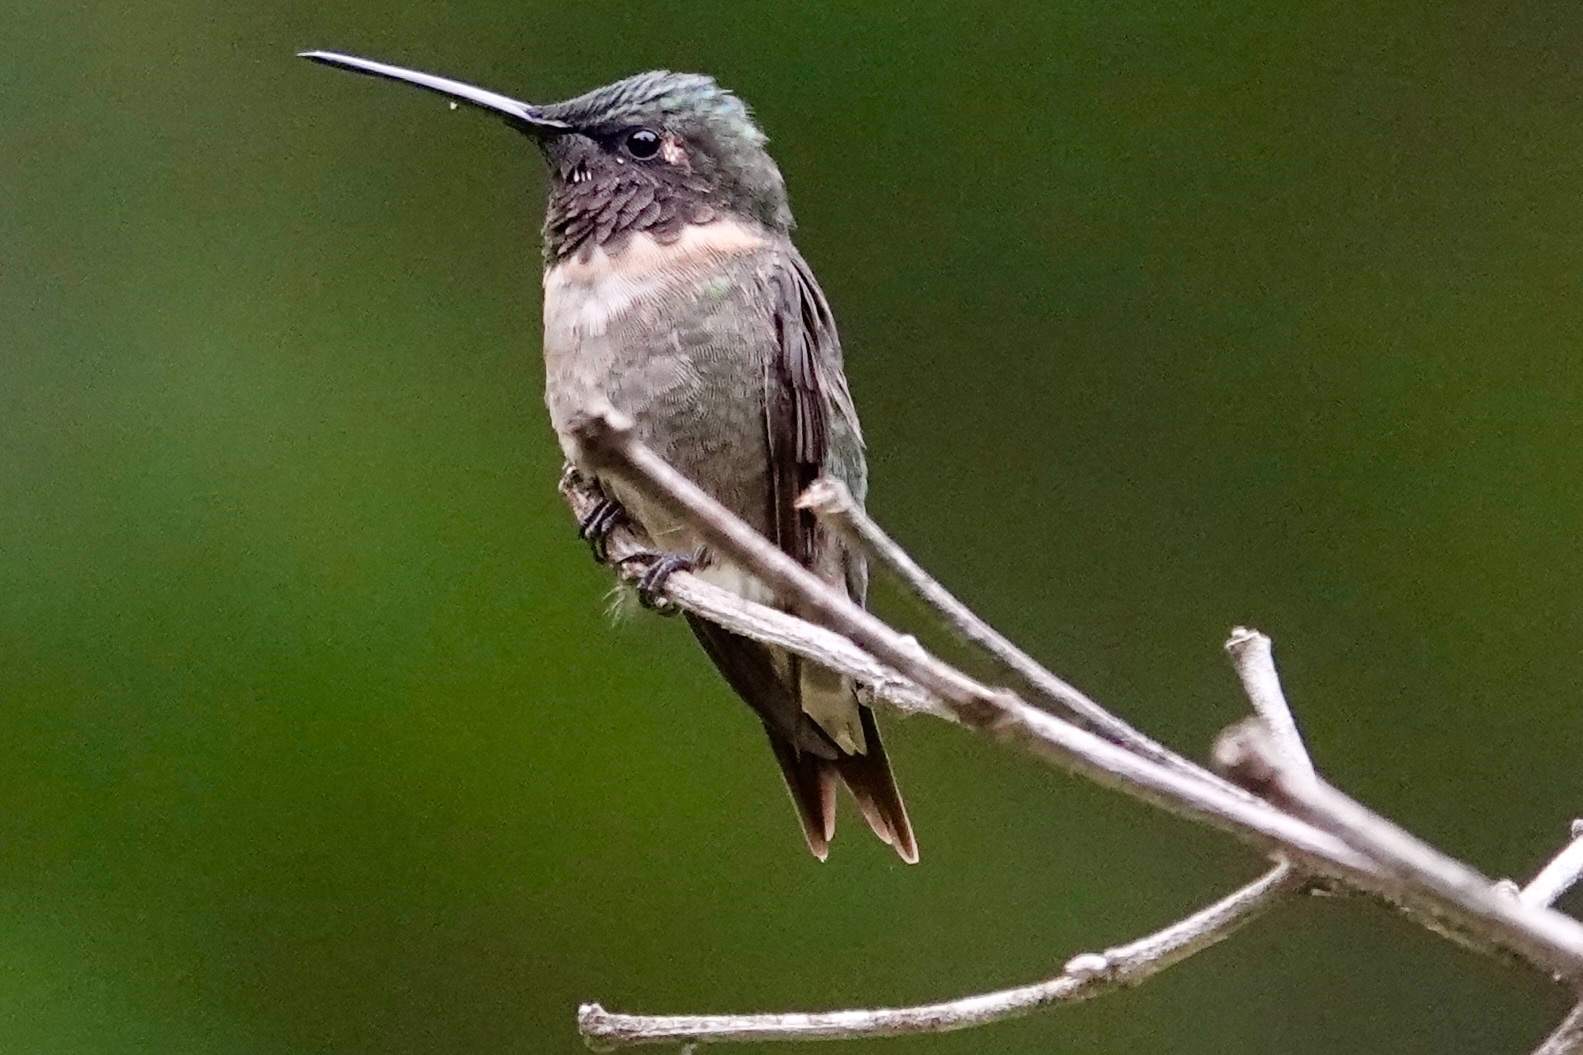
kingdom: Animalia
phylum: Chordata
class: Aves
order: Apodiformes
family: Trochilidae
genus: Archilochus
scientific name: Archilochus colubris
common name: Ruby-throated hummingbird
